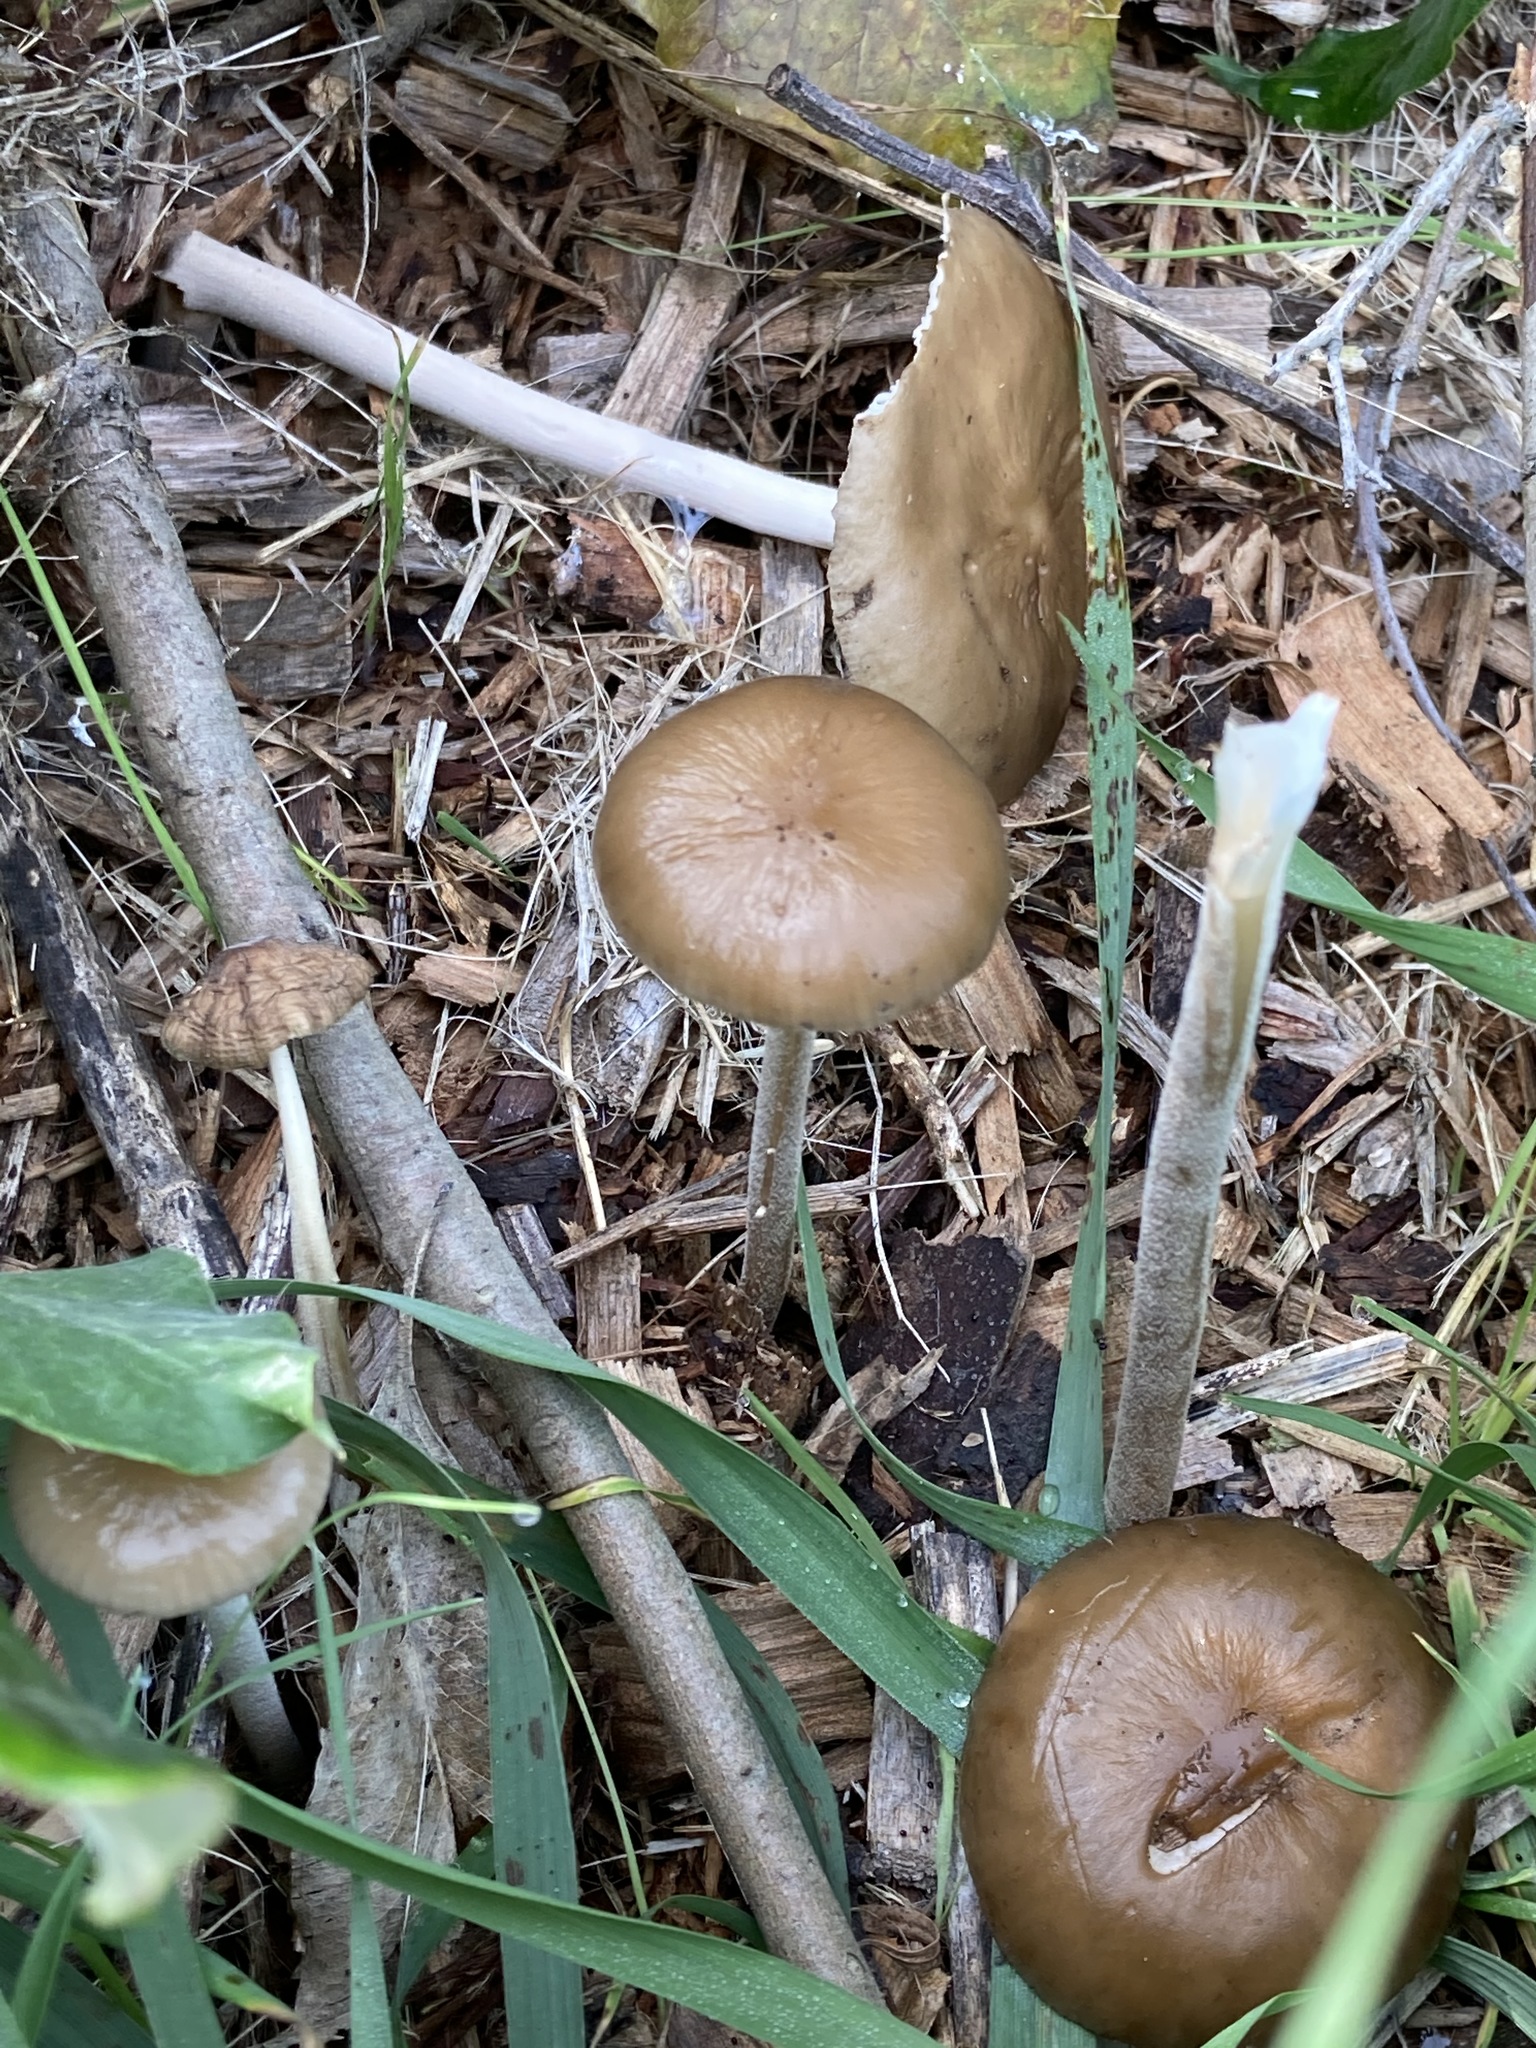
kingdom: Fungi
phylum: Basidiomycota
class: Agaricomycetes
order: Agaricales
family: Physalacriaceae
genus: Hymenopellis
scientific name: Hymenopellis gigaspora
